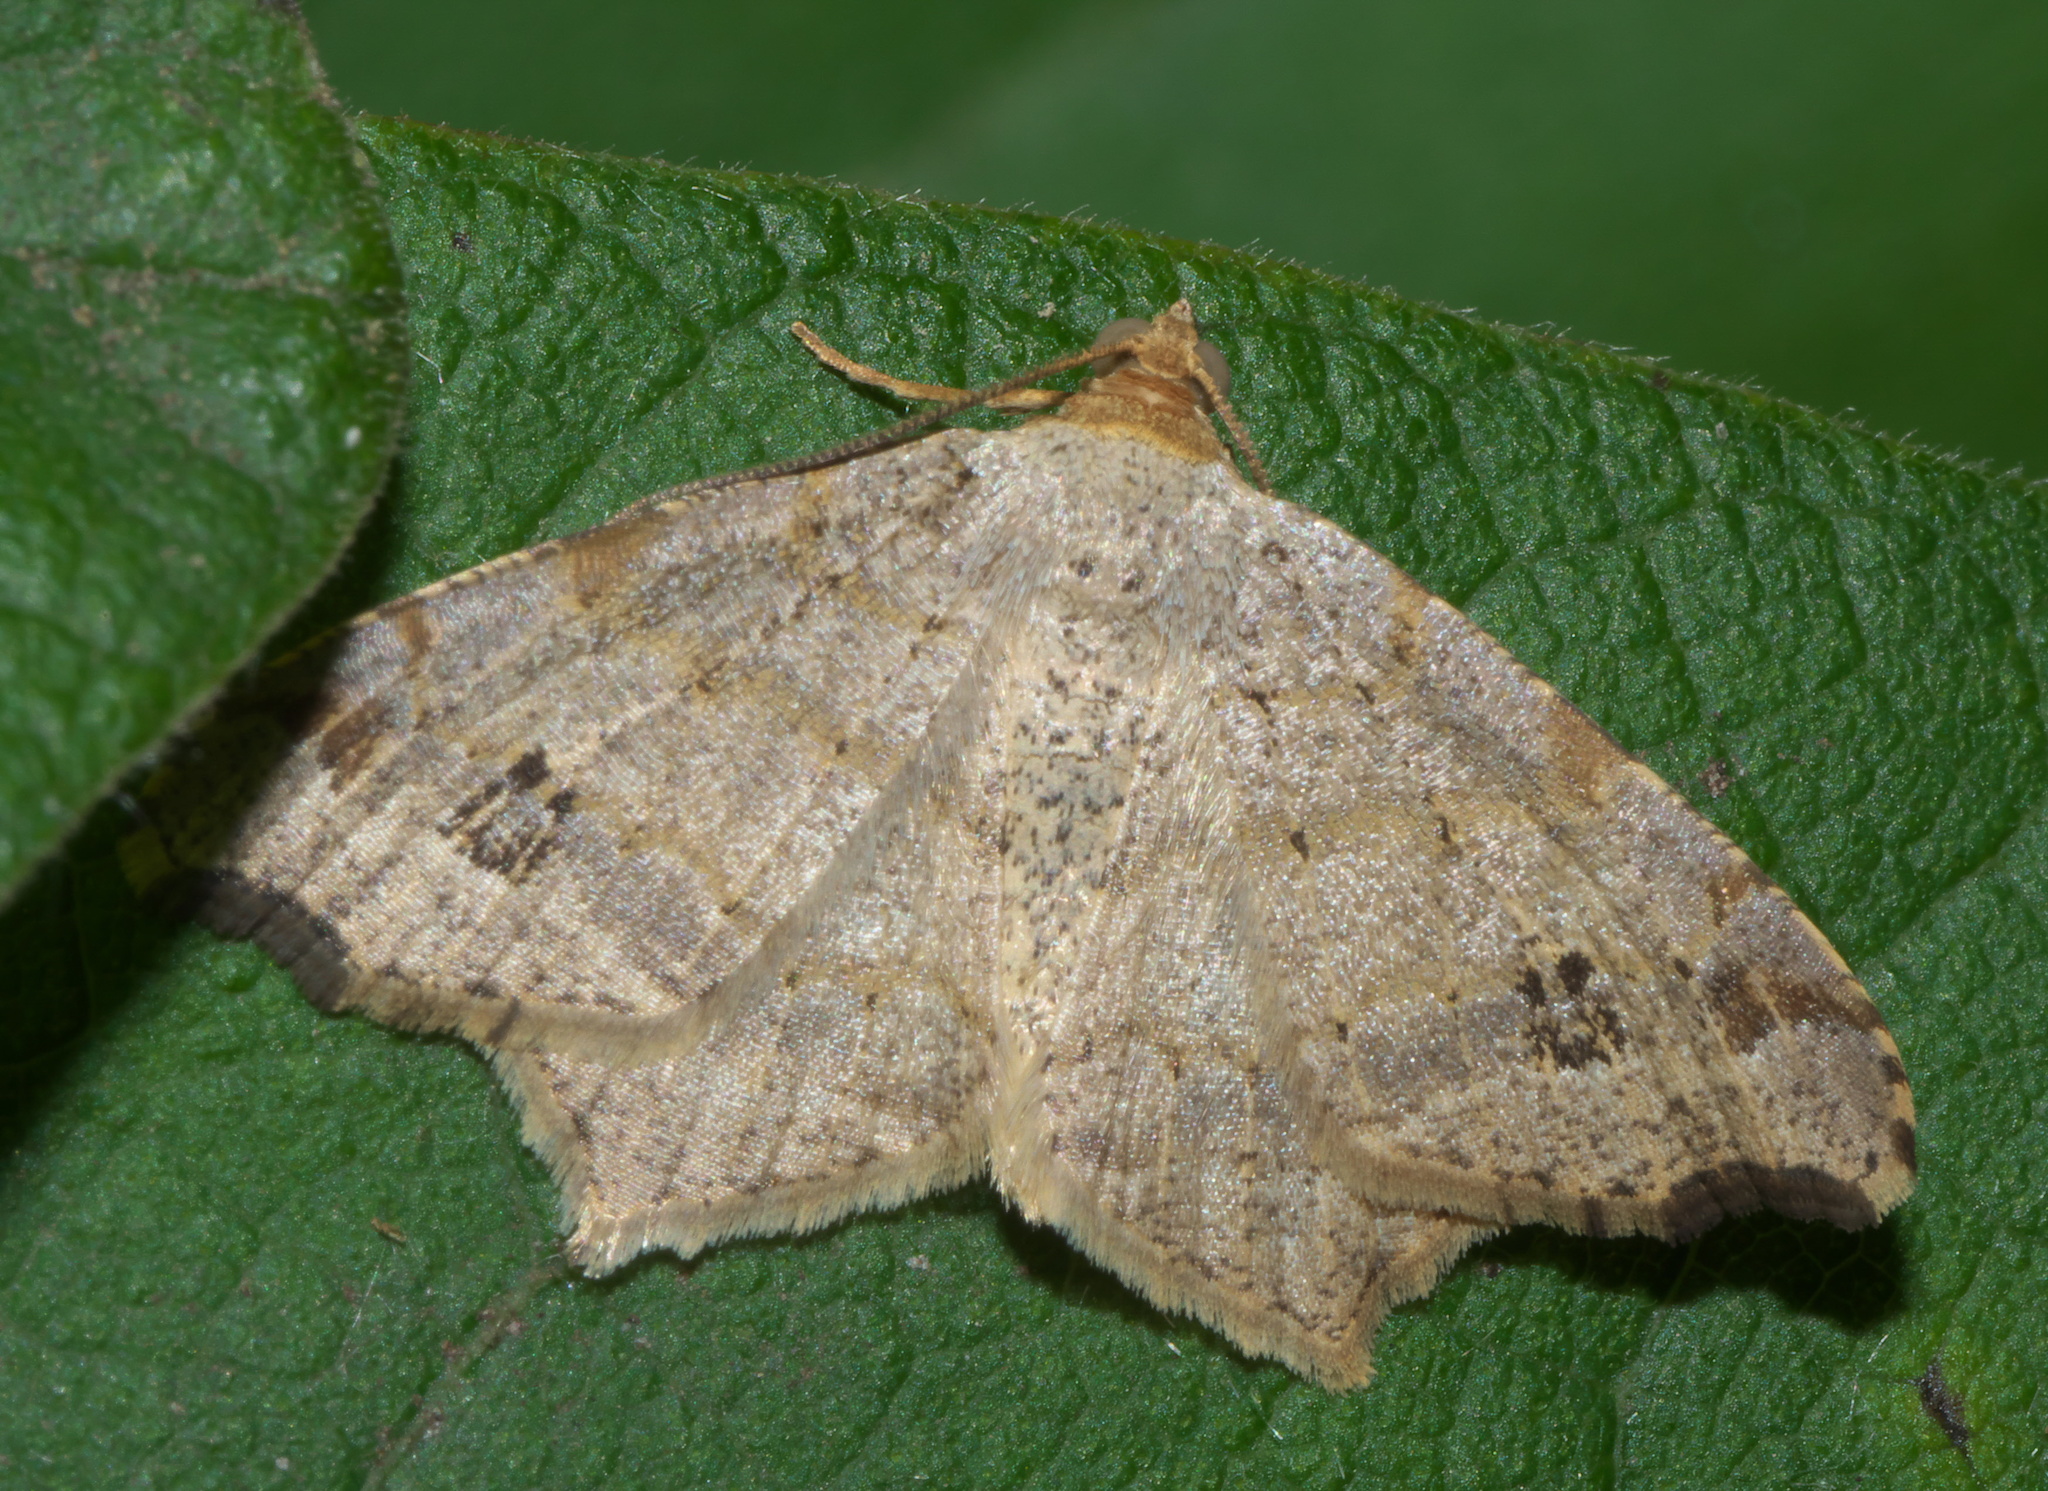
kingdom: Animalia
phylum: Arthropoda
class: Insecta
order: Lepidoptera
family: Geometridae
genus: Macaria
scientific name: Macaria aemulataria
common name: Common angle
